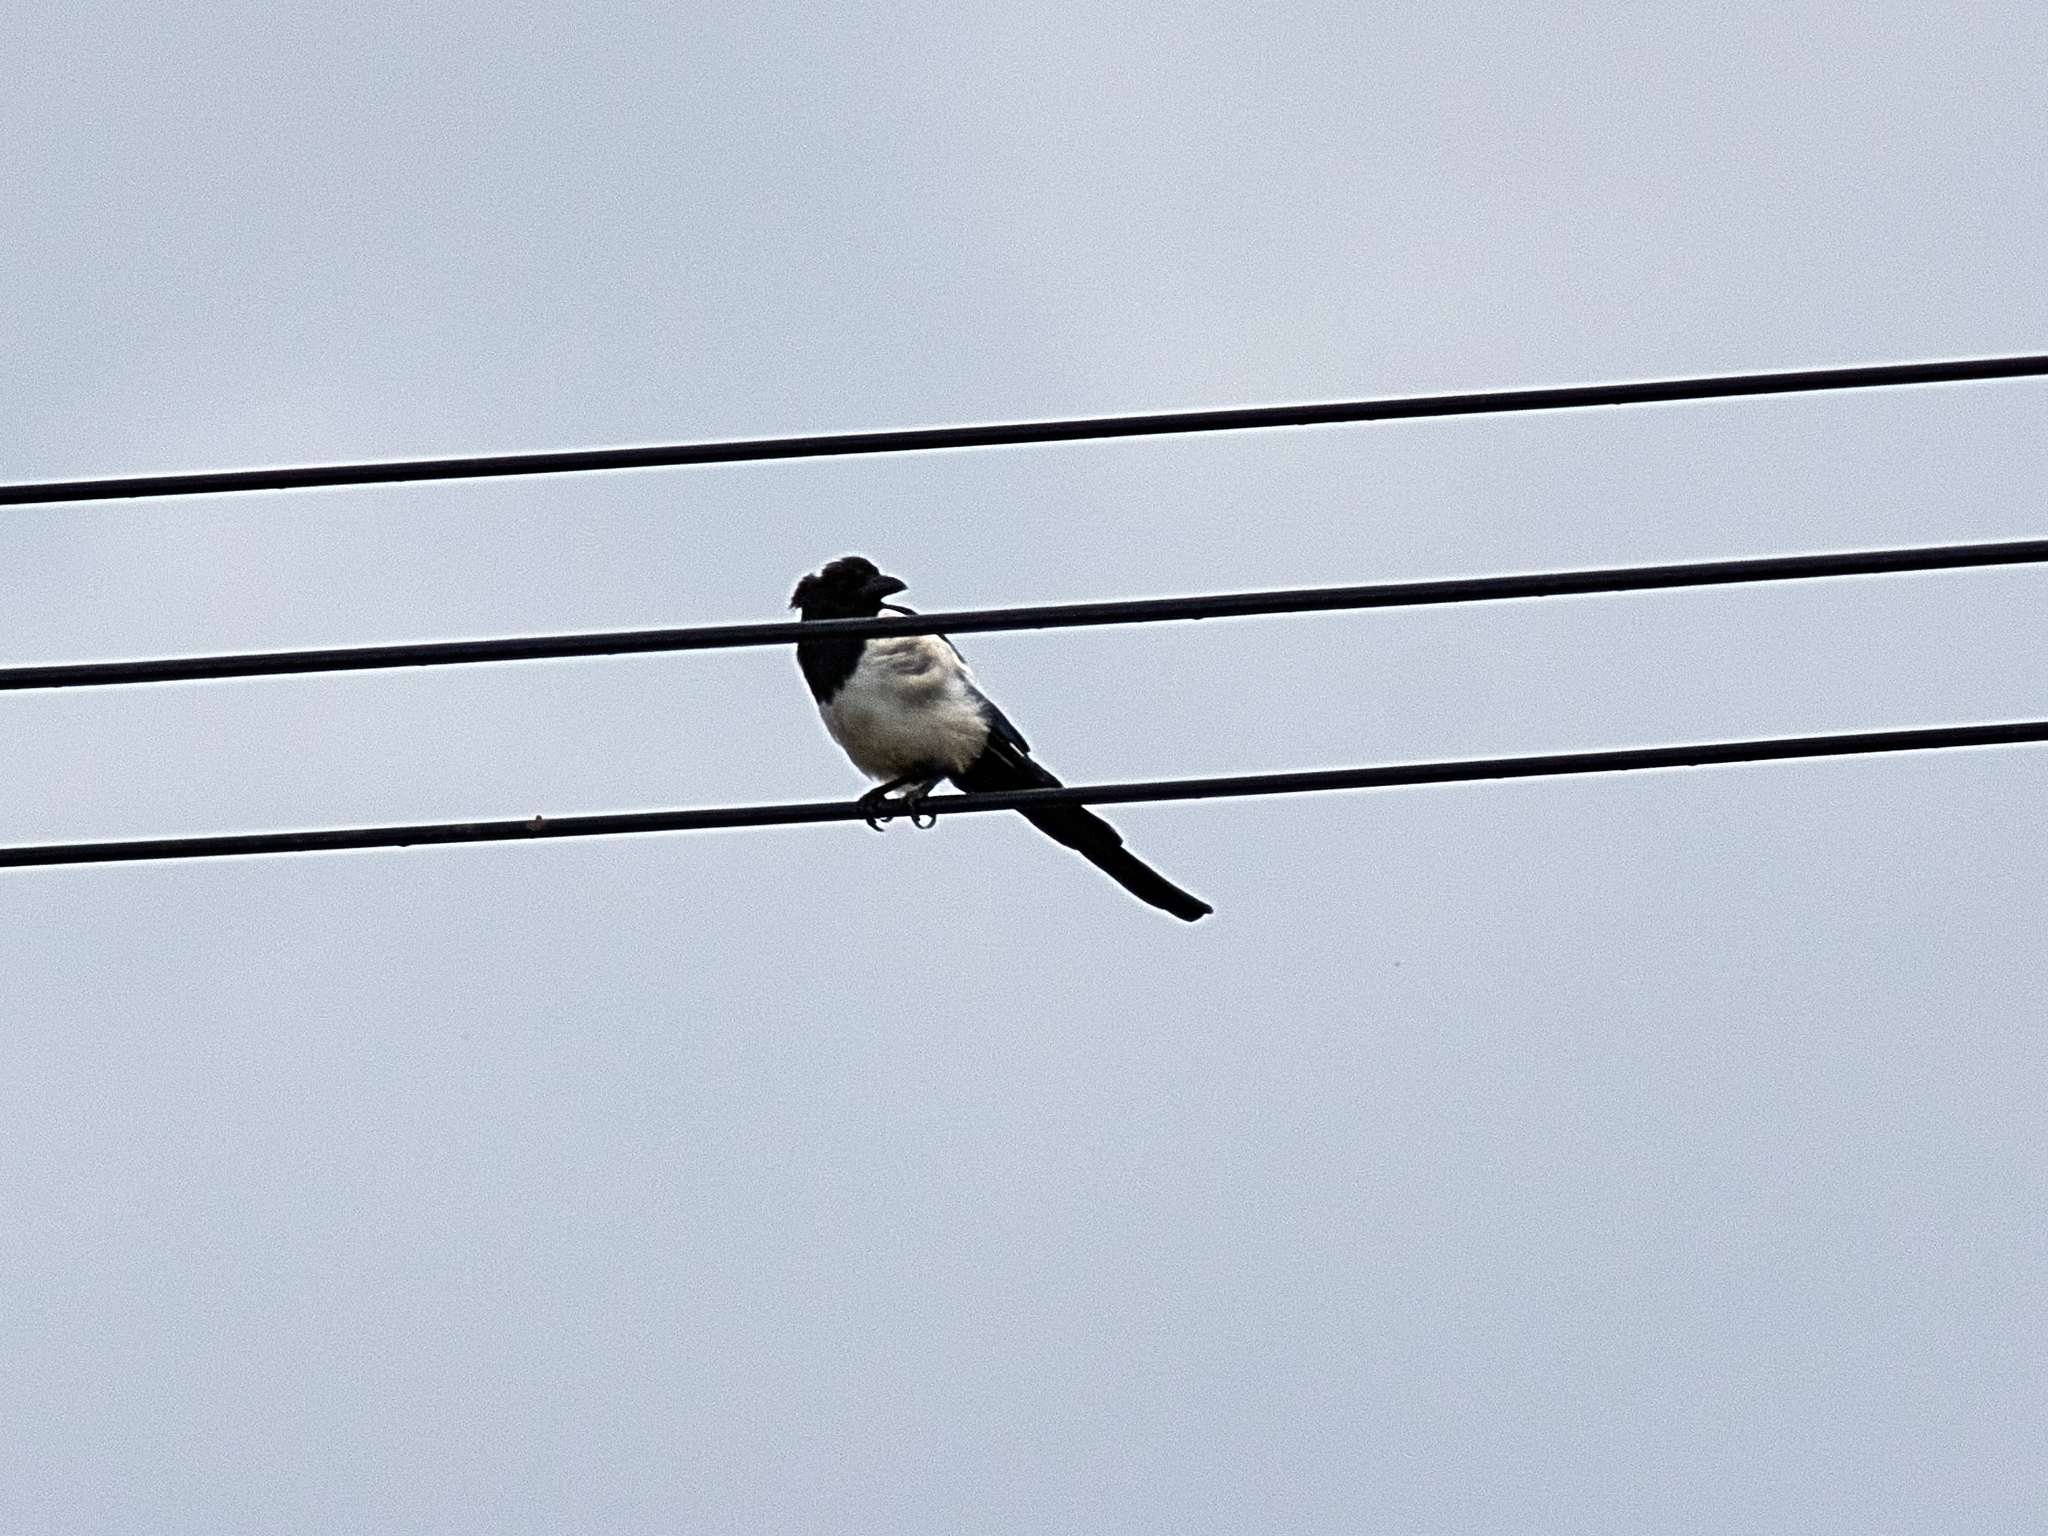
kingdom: Animalia
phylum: Chordata
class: Aves
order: Passeriformes
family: Corvidae
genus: Pica
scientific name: Pica pica
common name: Eurasian magpie
